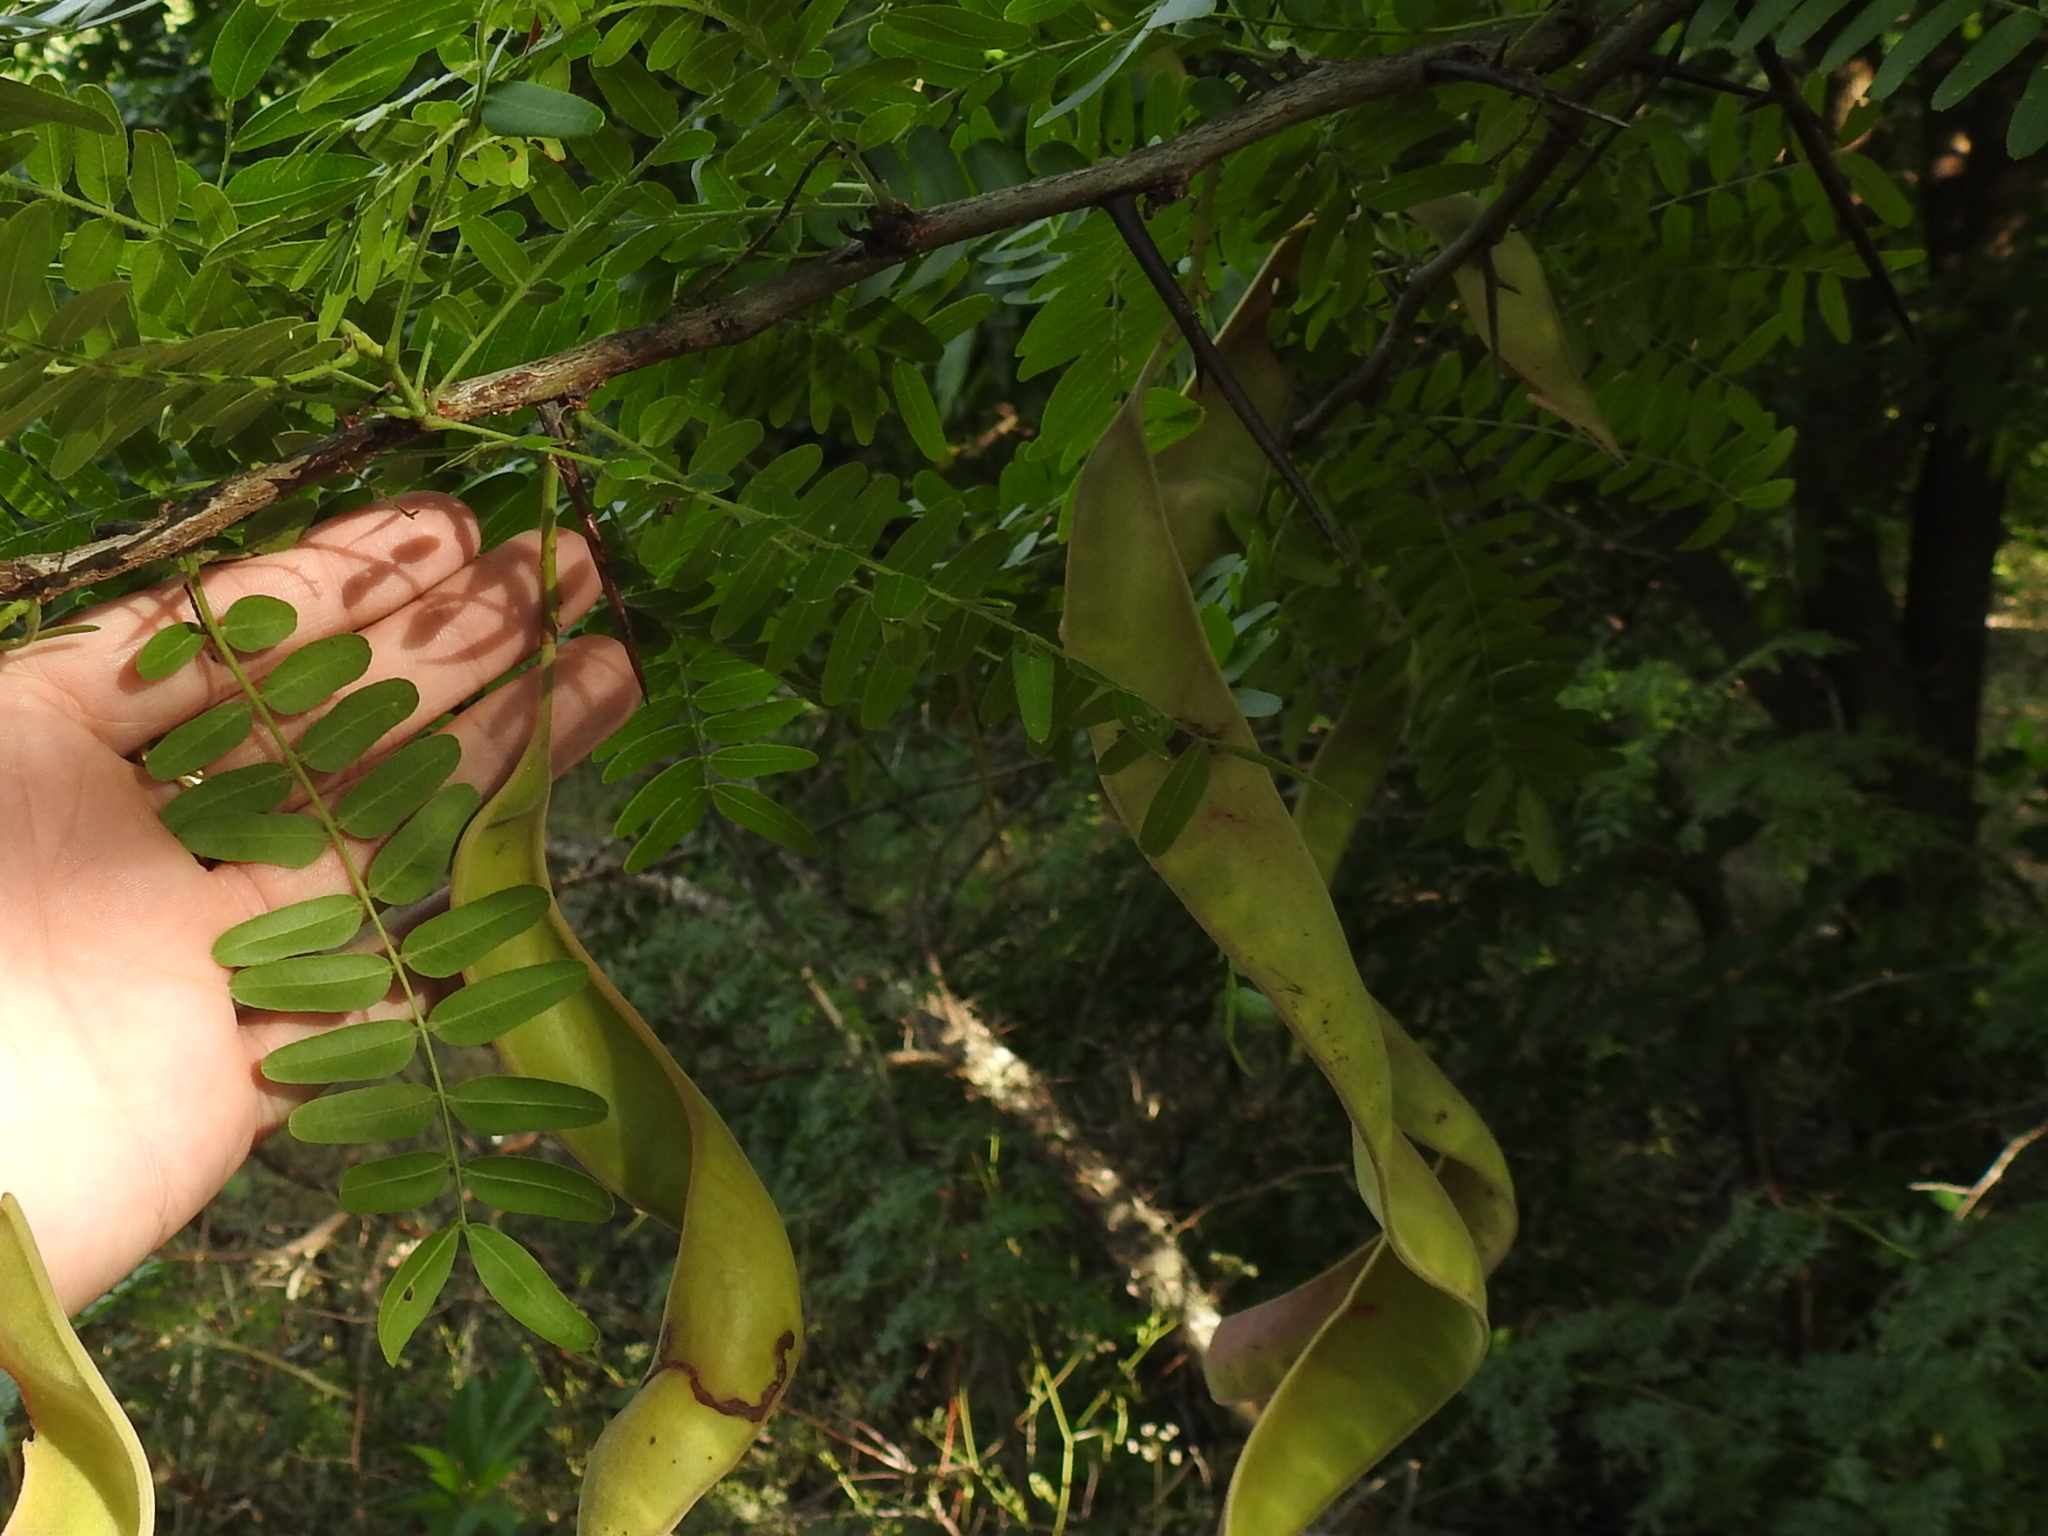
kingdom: Plantae
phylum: Tracheophyta
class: Magnoliopsida
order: Fabales
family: Fabaceae
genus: Gleditsia
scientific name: Gleditsia triacanthos
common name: Common honeylocust
